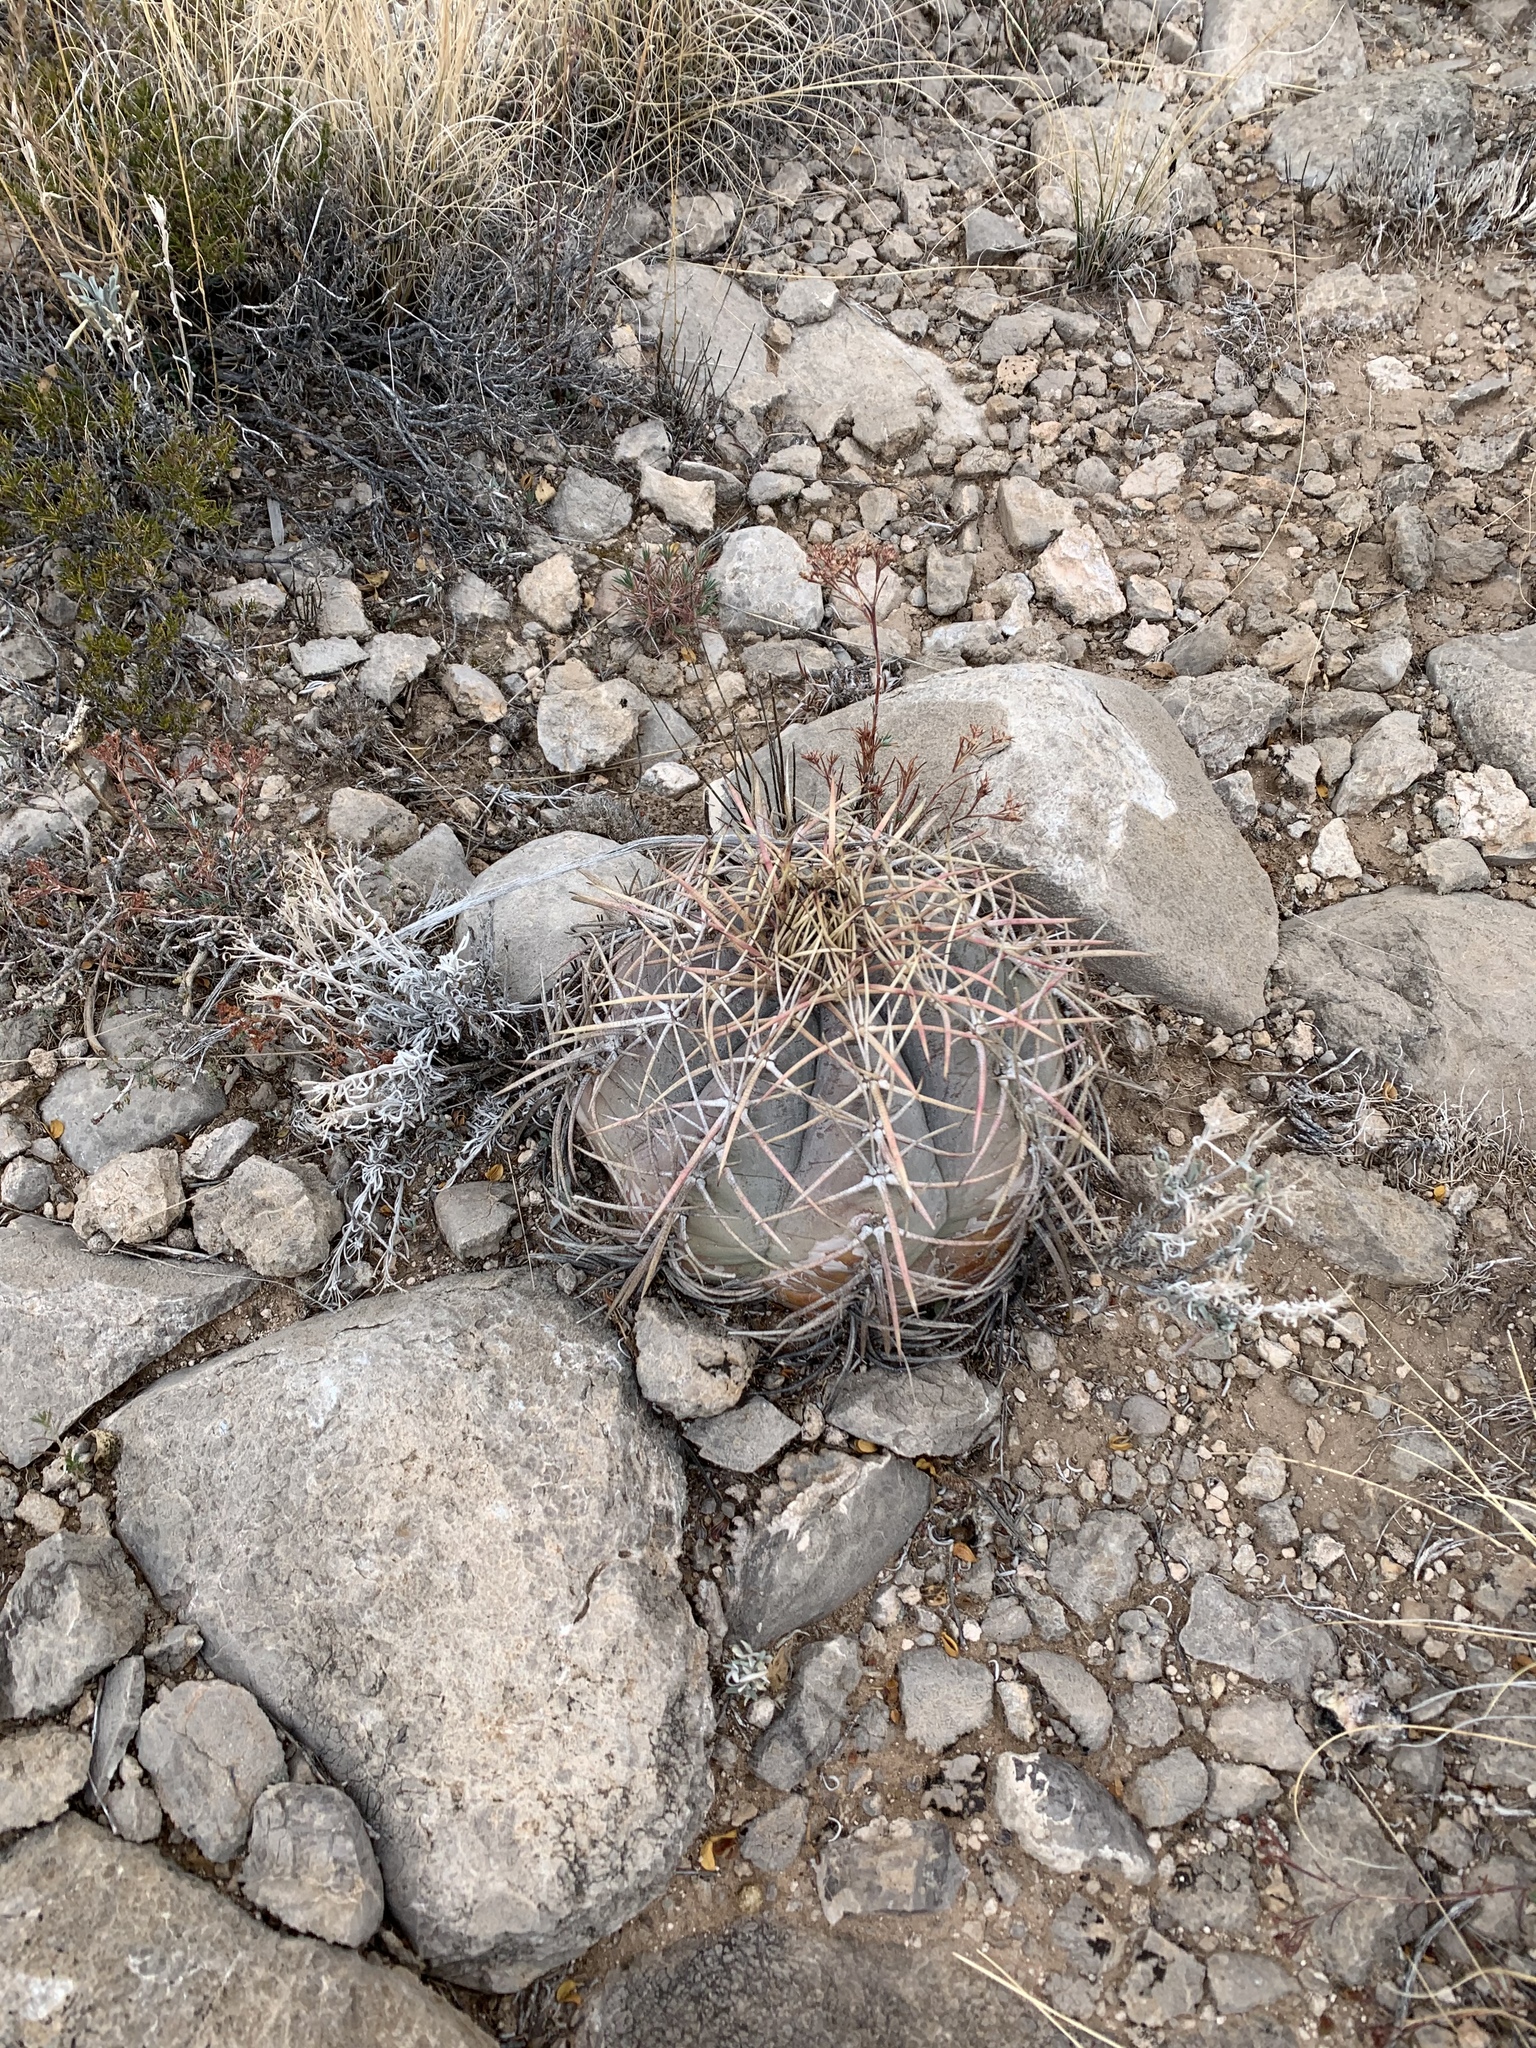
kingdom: Plantae
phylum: Tracheophyta
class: Magnoliopsida
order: Caryophyllales
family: Cactaceae
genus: Echinocactus
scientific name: Echinocactus horizonthalonius
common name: Devilshead
